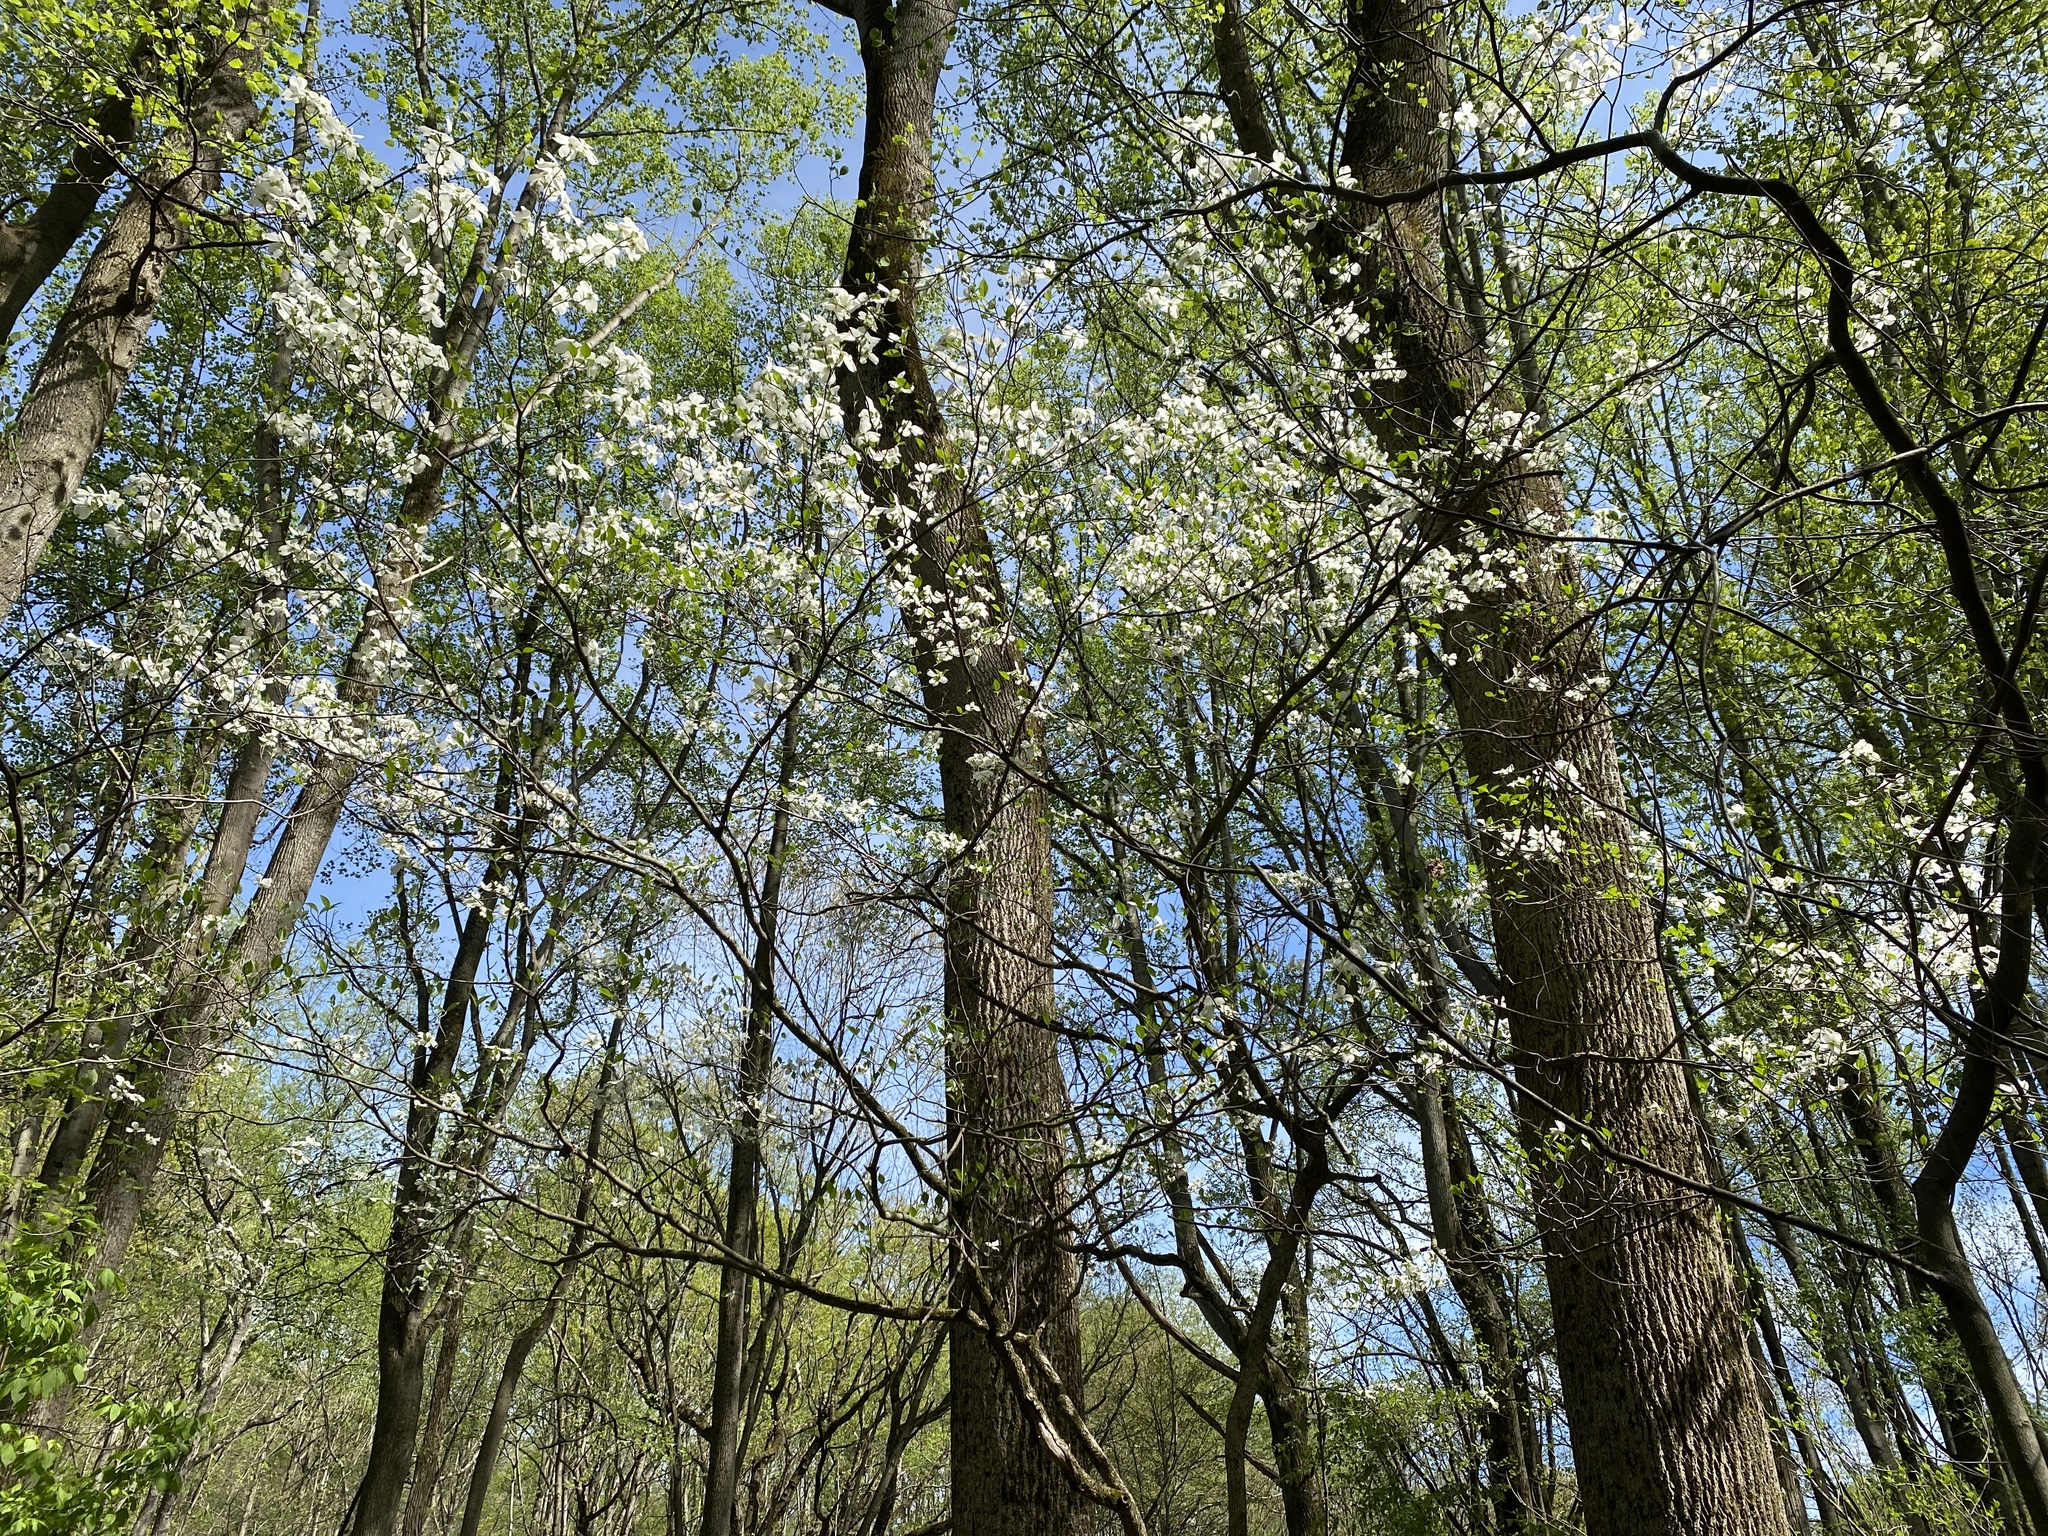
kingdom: Plantae
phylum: Tracheophyta
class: Magnoliopsida
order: Cornales
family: Cornaceae
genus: Cornus
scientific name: Cornus florida
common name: Flowering dogwood
